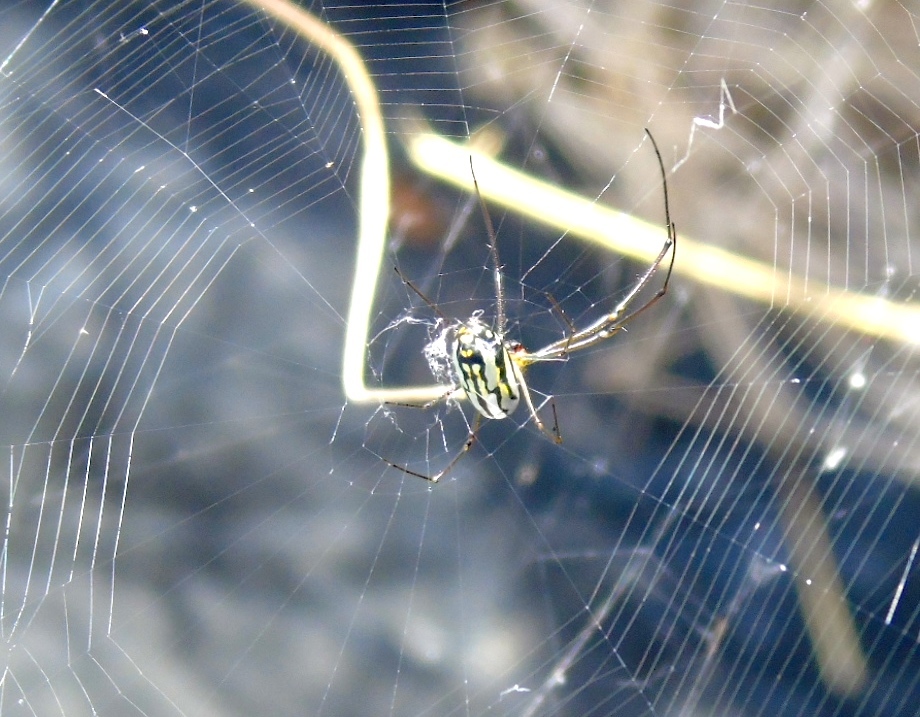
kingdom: Animalia
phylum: Arthropoda
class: Arachnida
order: Araneae
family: Tetragnathidae
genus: Leucauge
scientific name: Leucauge
